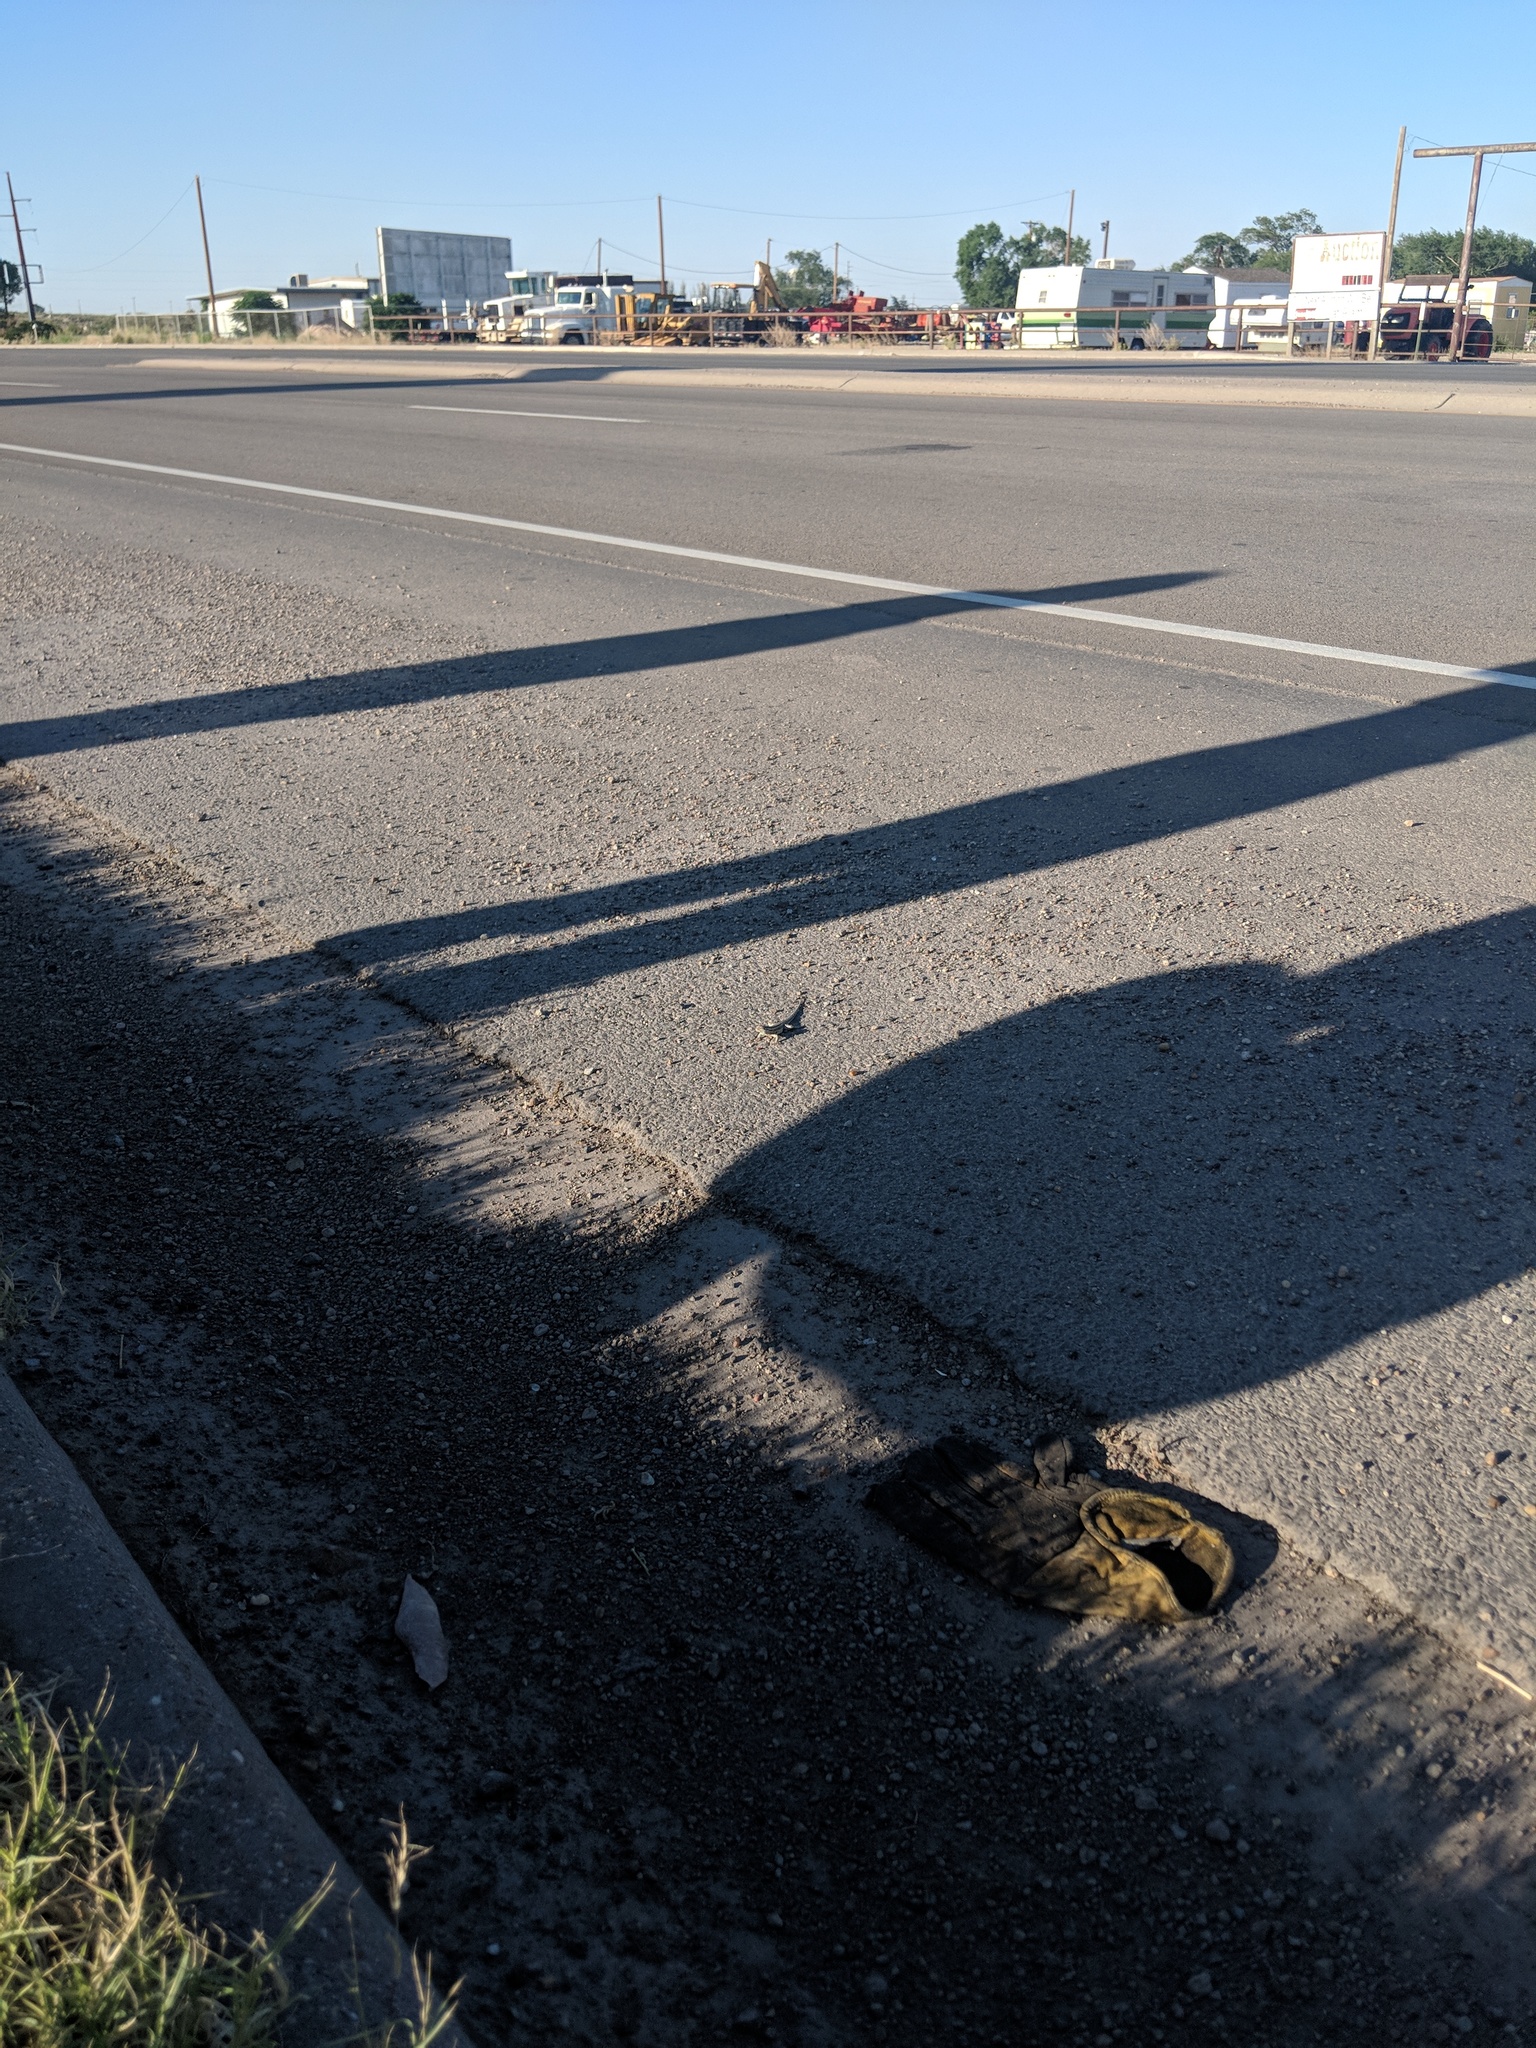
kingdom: Animalia
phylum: Chordata
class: Squamata
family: Phrynosomatidae
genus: Sceloporus
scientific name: Sceloporus cowlesi
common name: White sands prairie lizard
